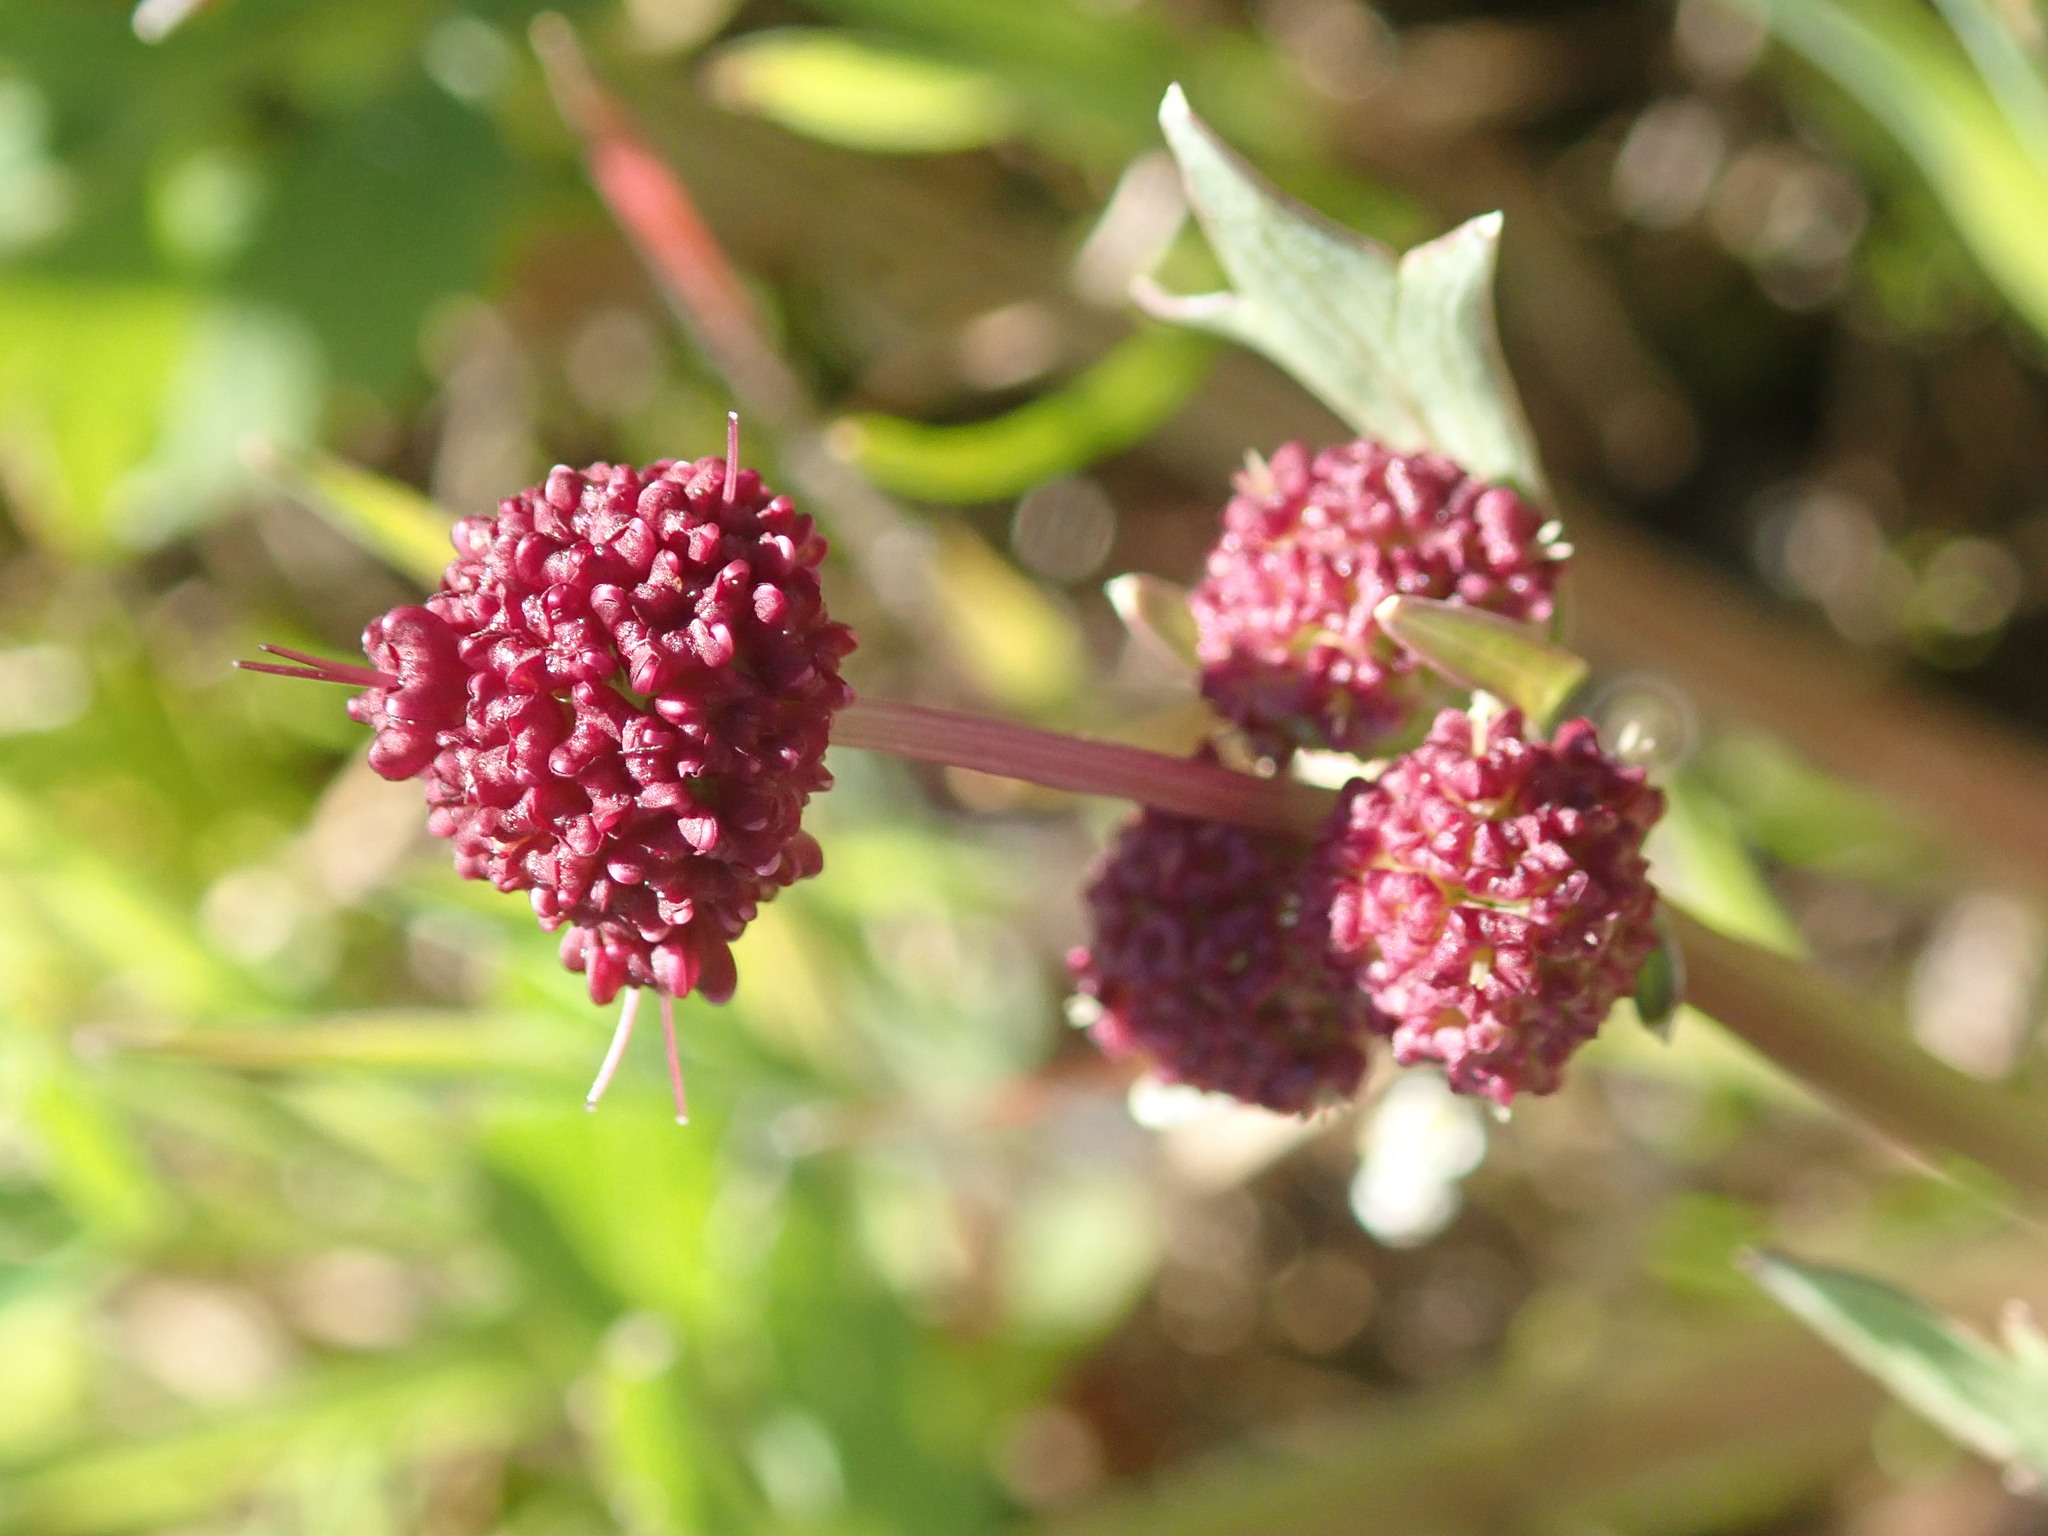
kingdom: Plantae
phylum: Tracheophyta
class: Magnoliopsida
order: Apiales
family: Apiaceae
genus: Sanicula
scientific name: Sanicula bipinnatifida
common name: Shoe-buttons
